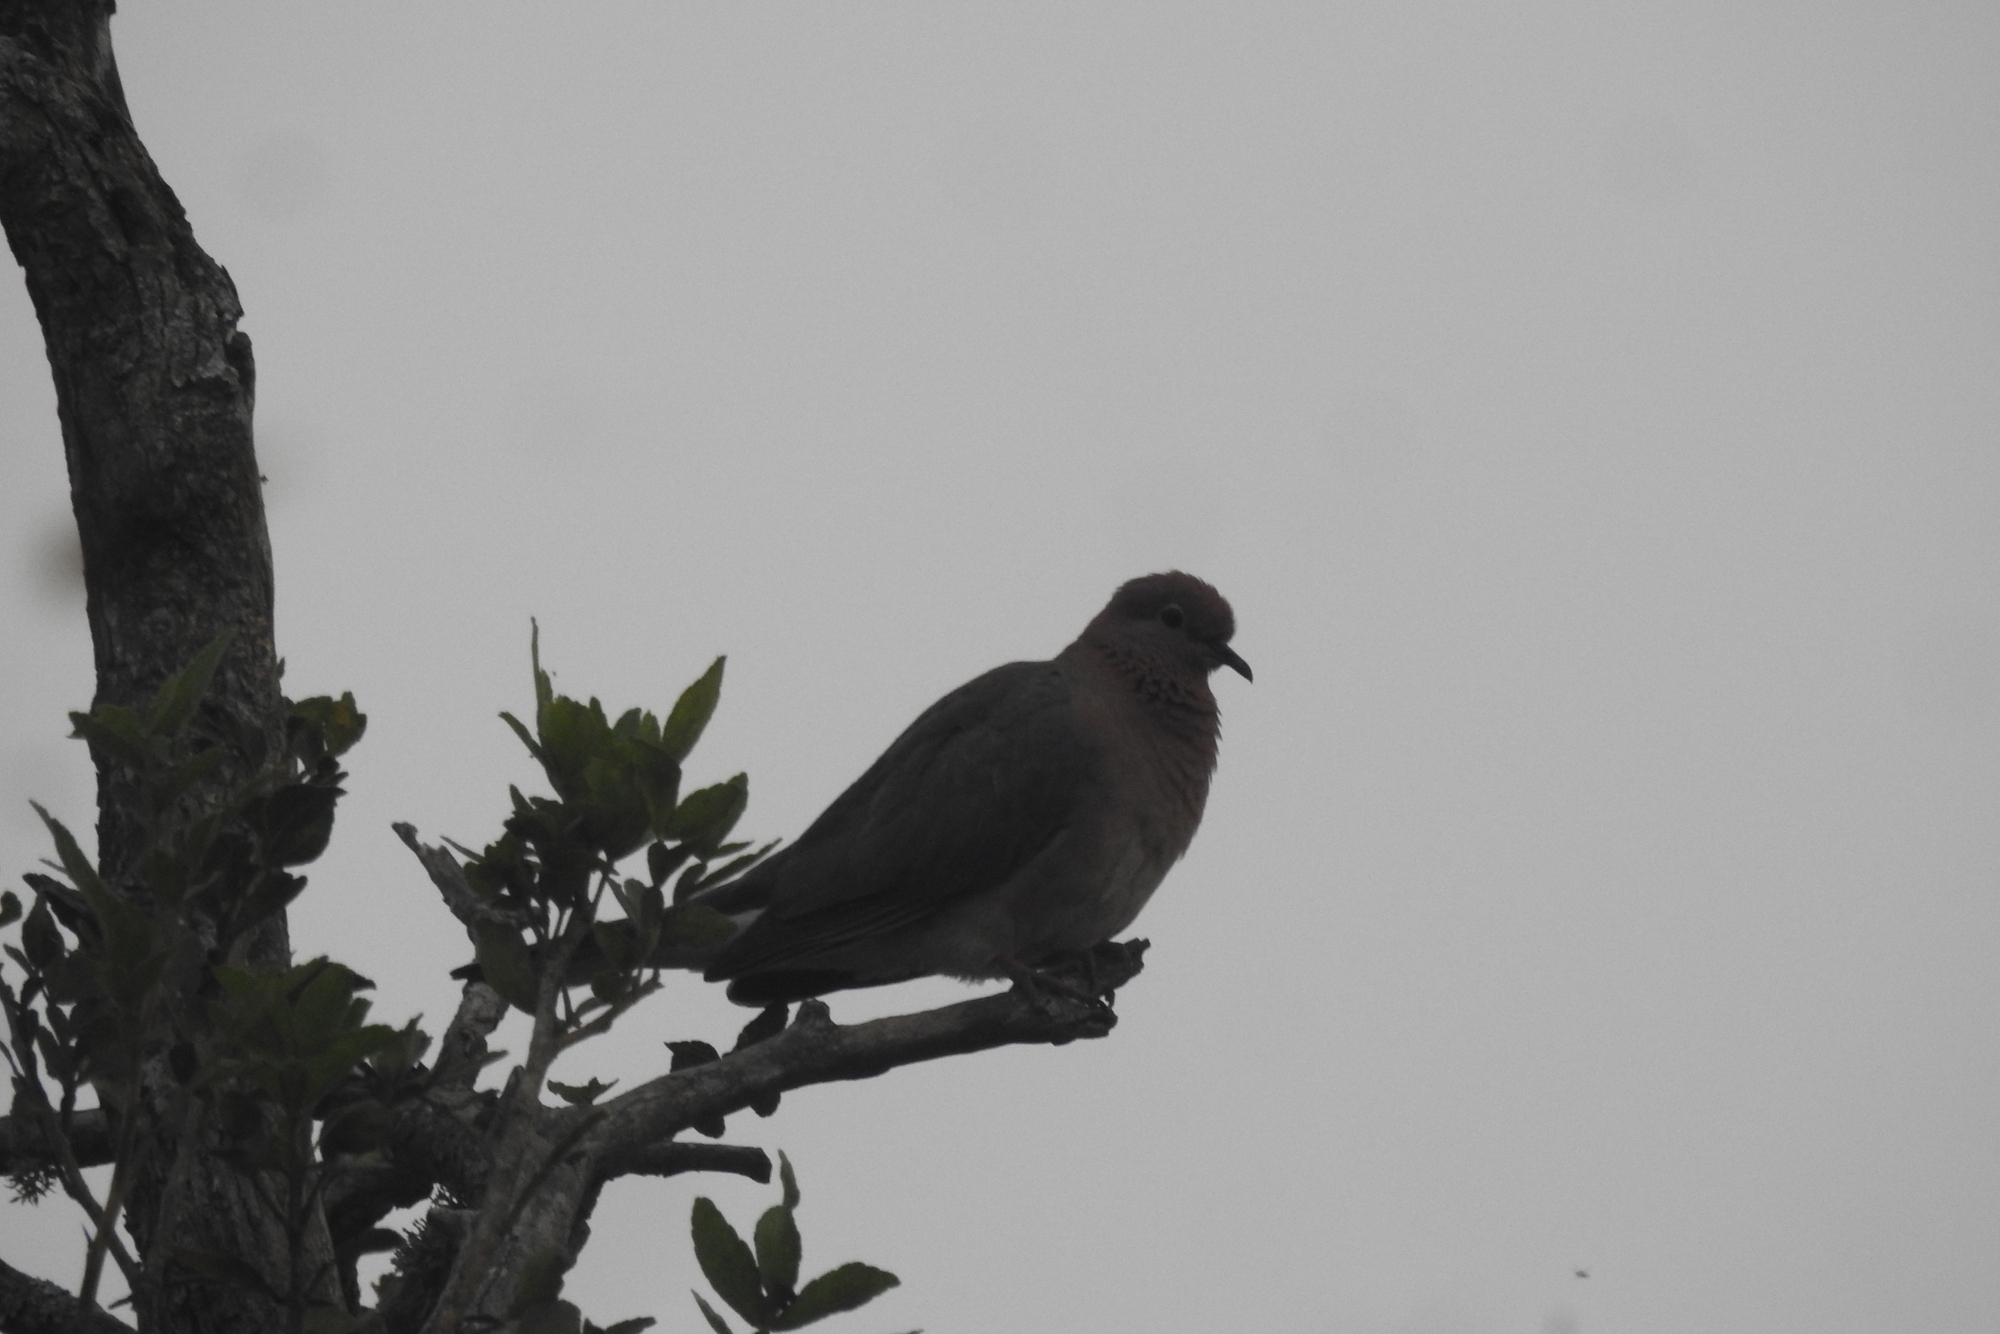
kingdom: Animalia
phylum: Chordata
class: Aves
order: Columbiformes
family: Columbidae
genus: Spilopelia
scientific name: Spilopelia senegalensis
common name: Laughing dove
